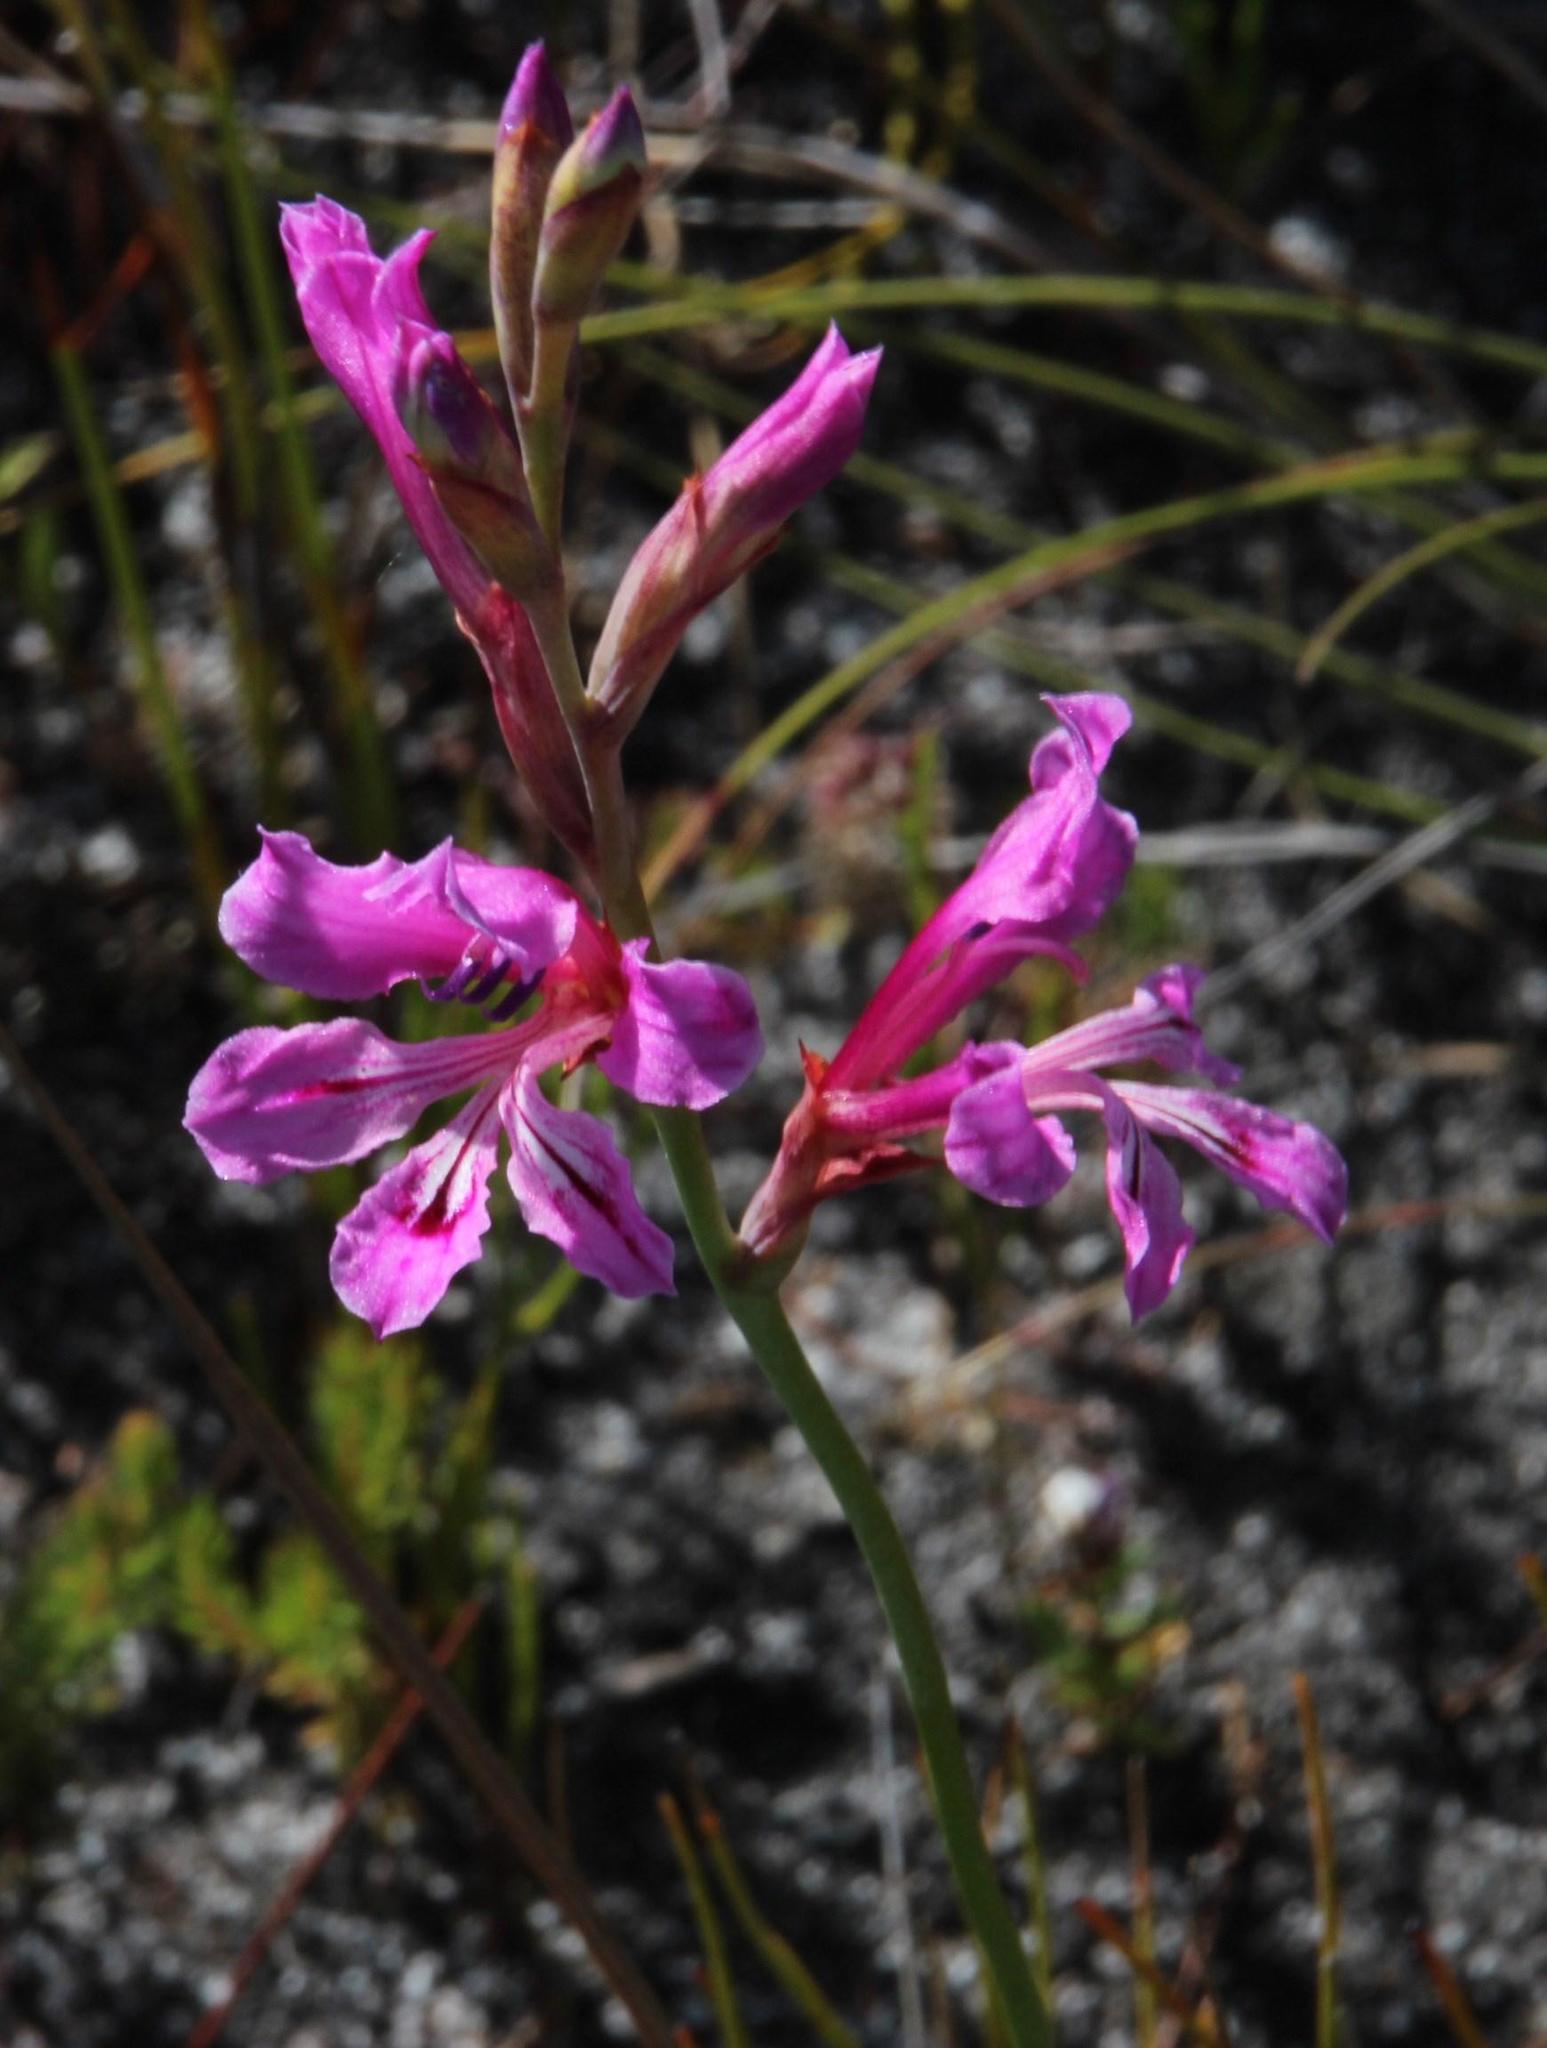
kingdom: Plantae
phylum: Tracheophyta
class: Liliopsida
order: Asparagales
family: Iridaceae
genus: Tritoniopsis
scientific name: Tritoniopsis lata
